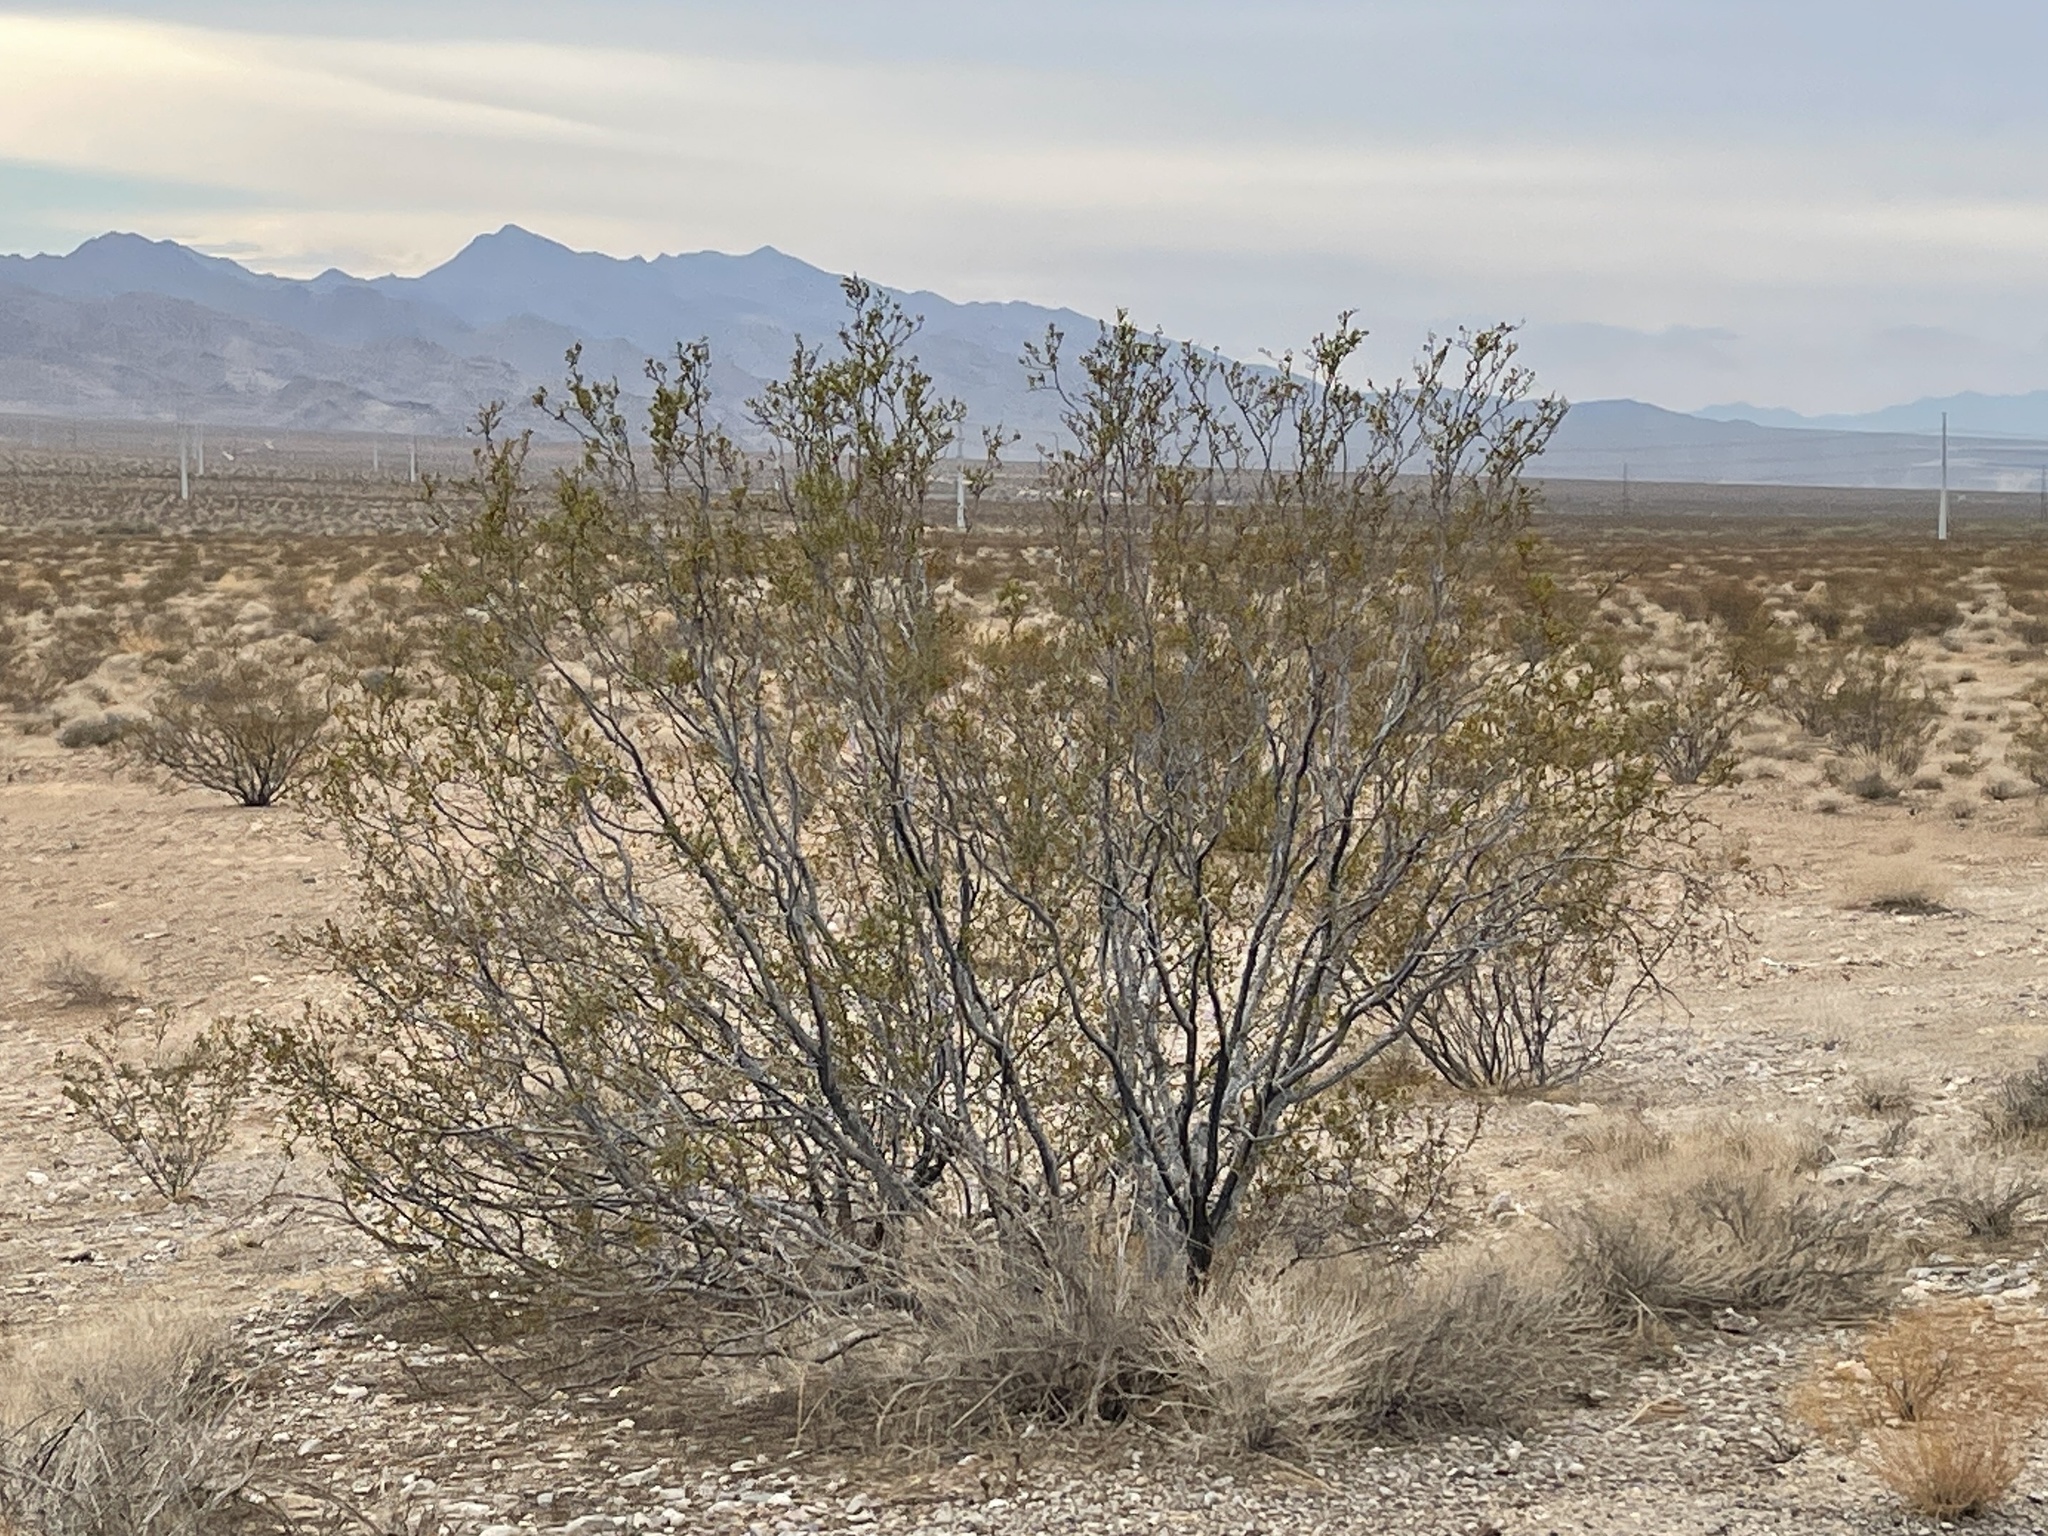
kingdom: Plantae
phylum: Tracheophyta
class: Magnoliopsida
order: Zygophyllales
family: Zygophyllaceae
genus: Larrea
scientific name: Larrea tridentata
